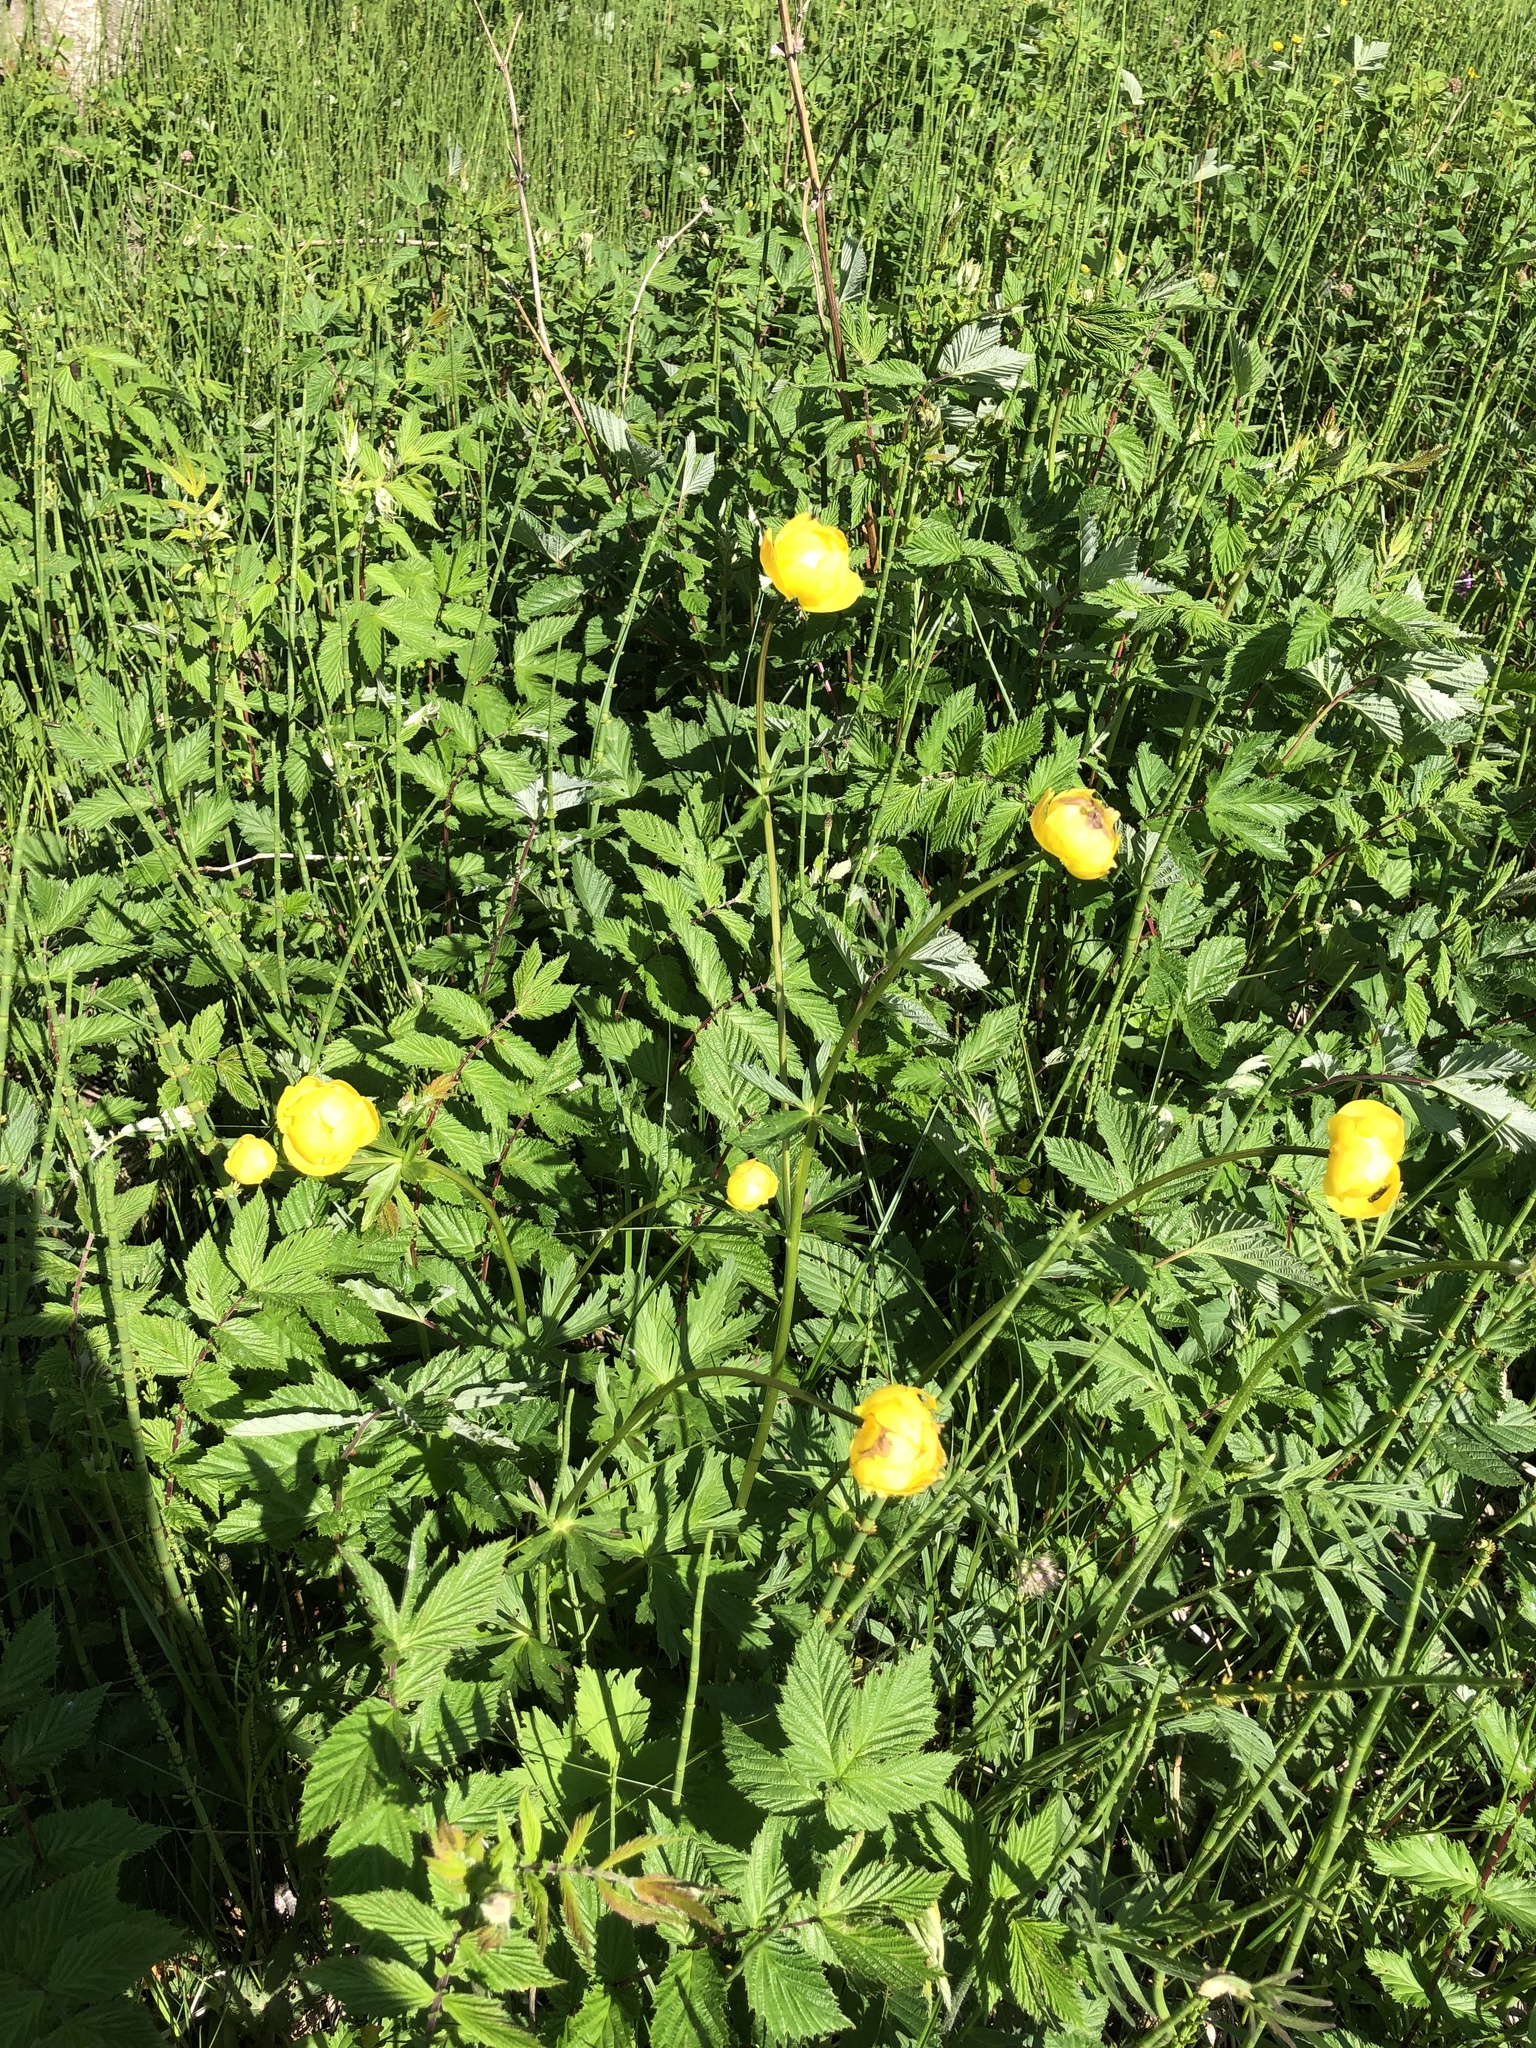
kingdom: Plantae
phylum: Tracheophyta
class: Magnoliopsida
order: Ranunculales
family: Ranunculaceae
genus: Trollius
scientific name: Trollius europaeus
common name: European globeflower
